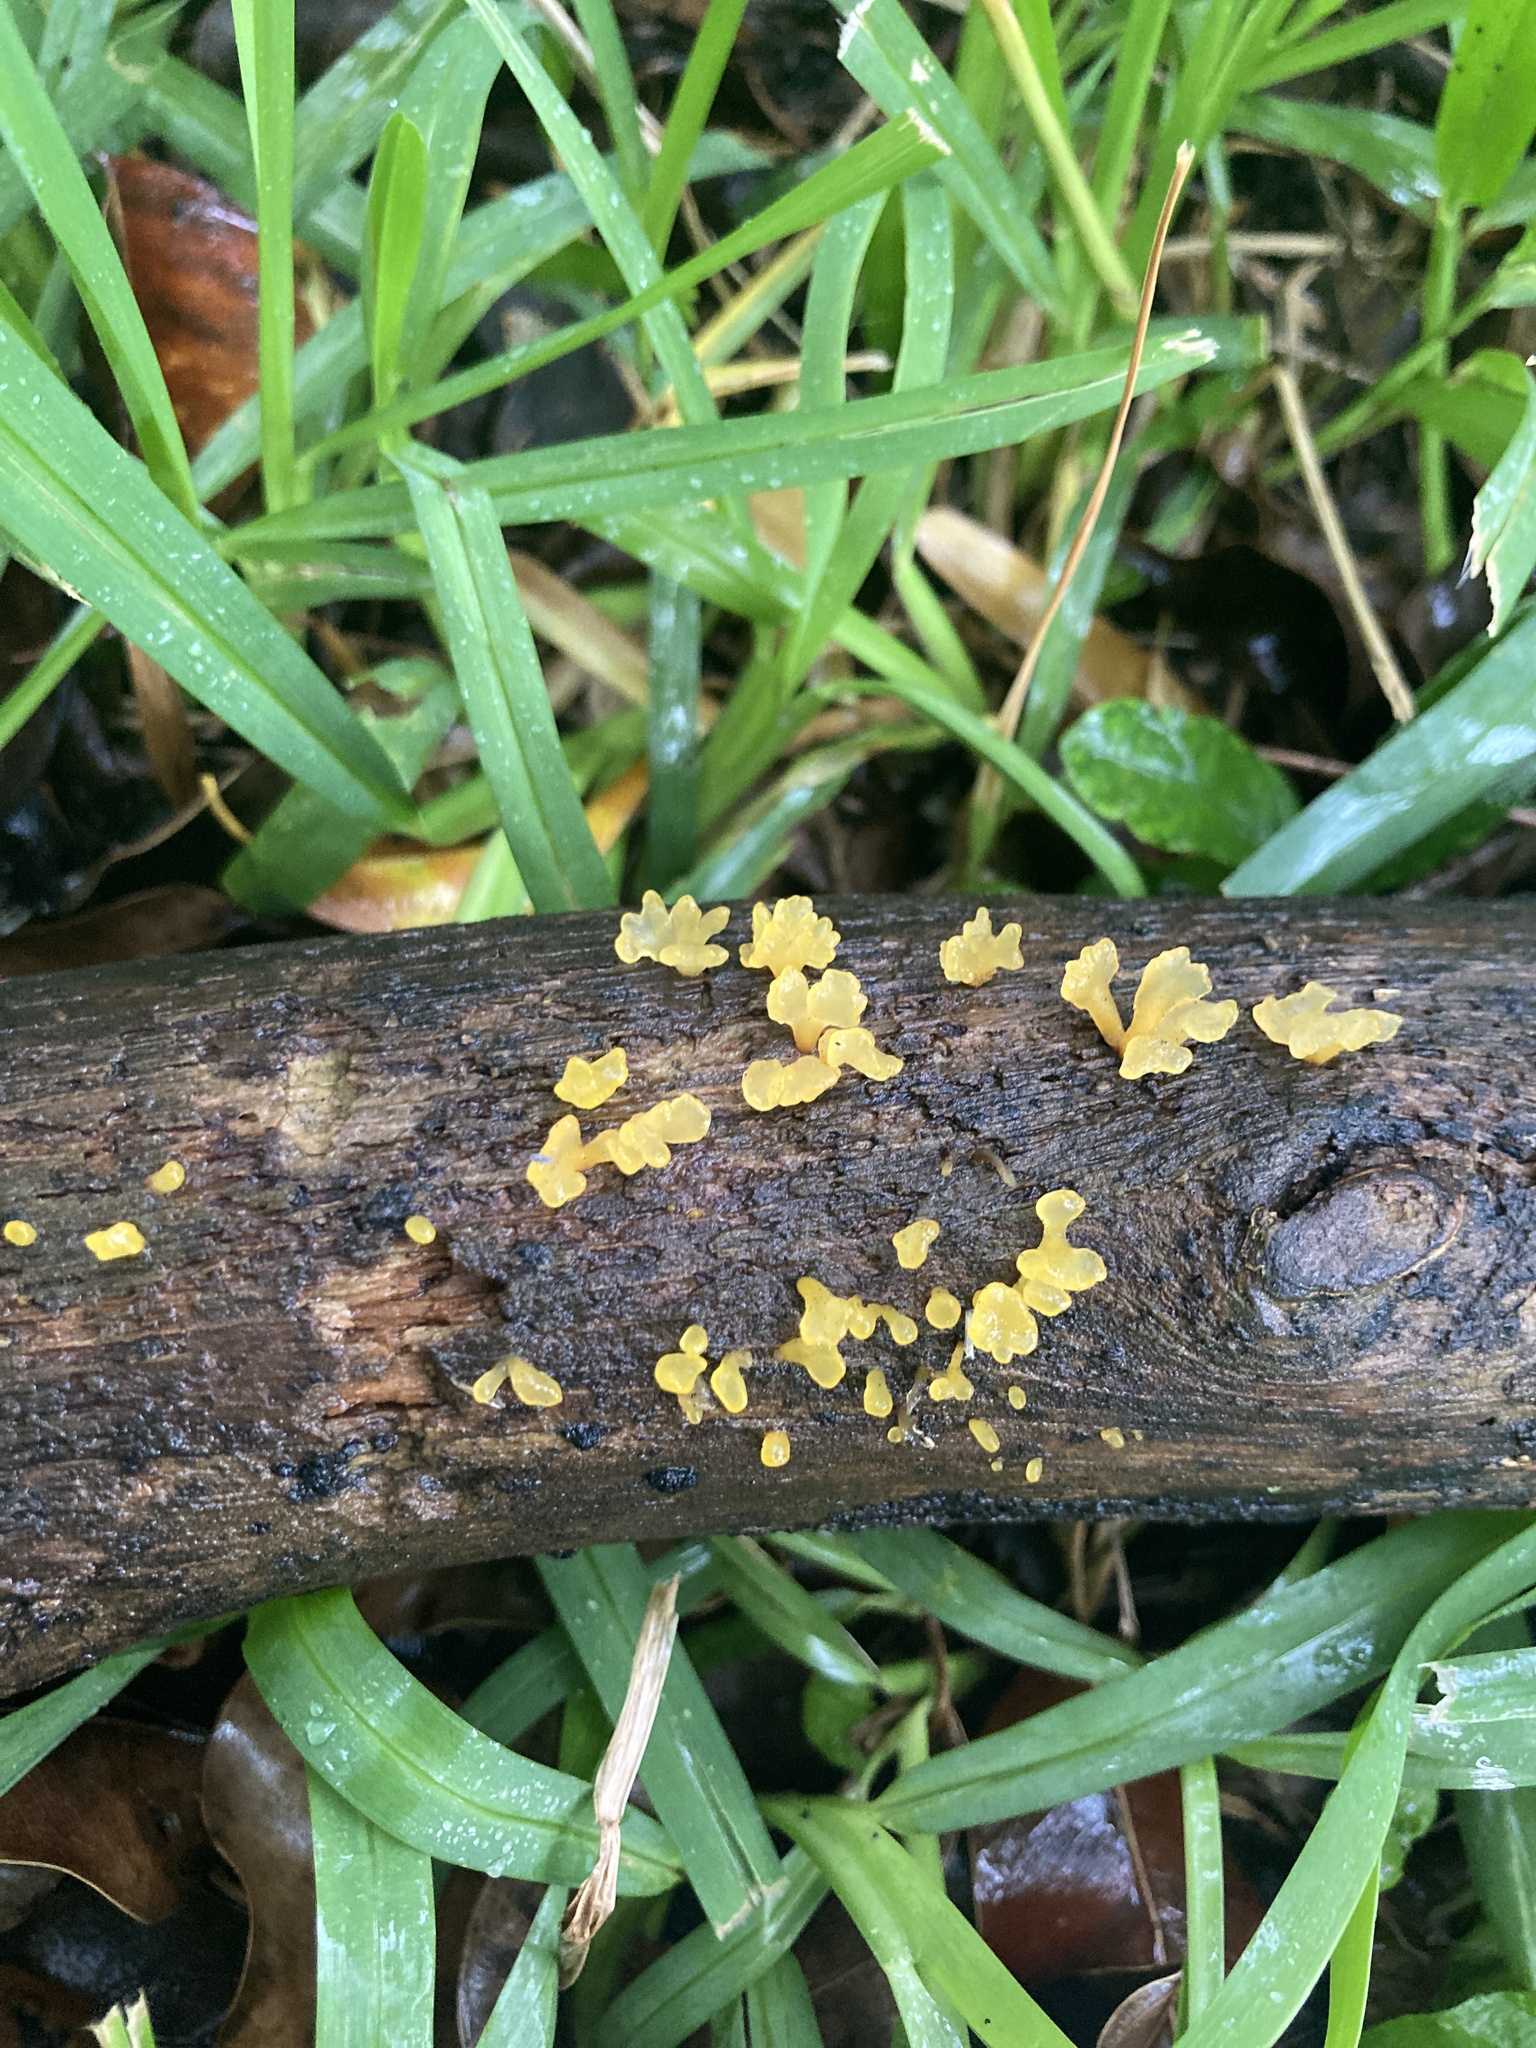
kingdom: Fungi
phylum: Basidiomycota
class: Dacrymycetes
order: Dacrymycetales
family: Dacrymycetaceae
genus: Dacrymyces
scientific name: Dacrymyces spathularius
